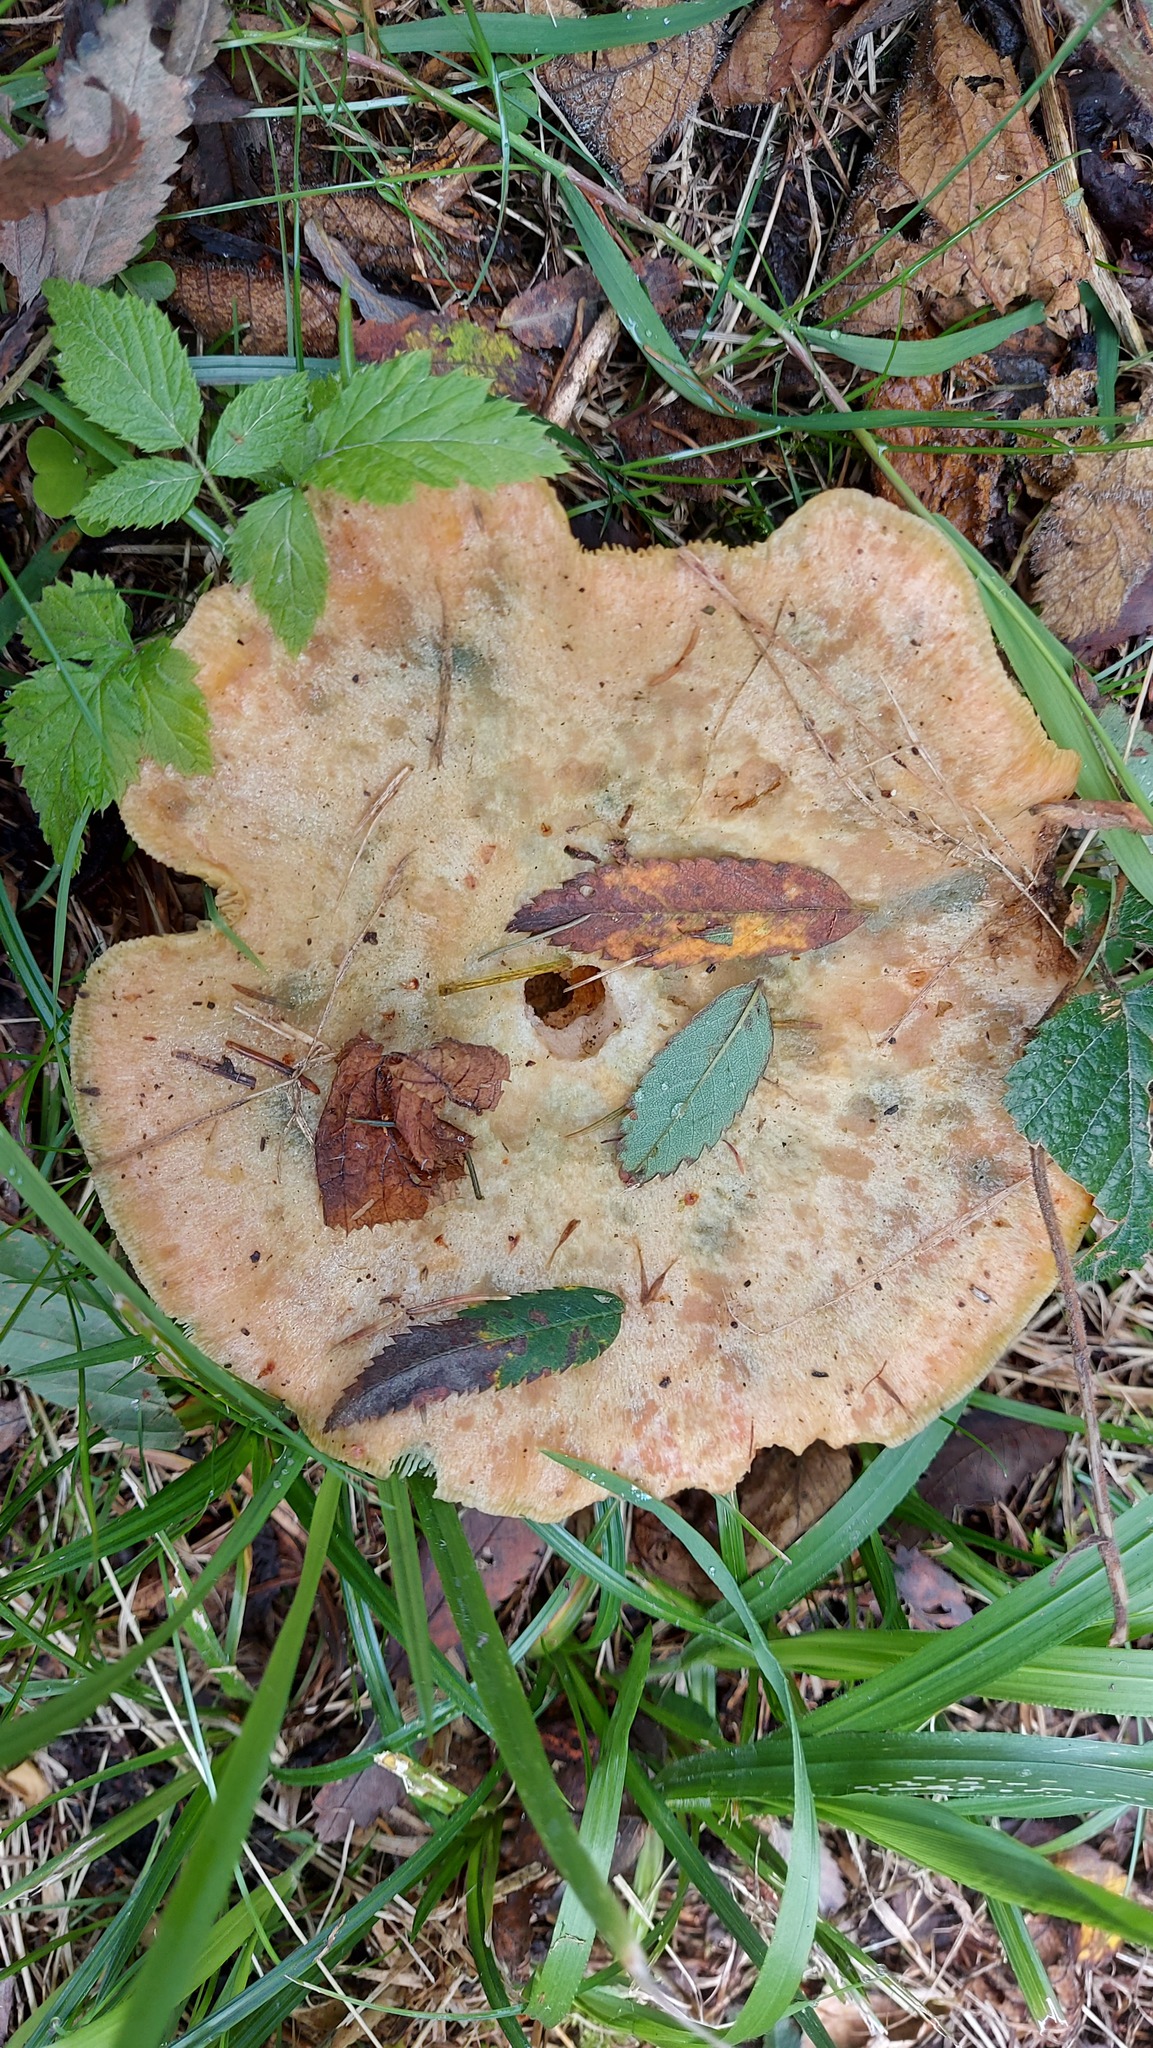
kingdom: Fungi
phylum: Basidiomycota
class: Agaricomycetes
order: Russulales
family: Russulaceae
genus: Lactarius
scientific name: Lactarius deterrimus
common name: False saffron milkcap
